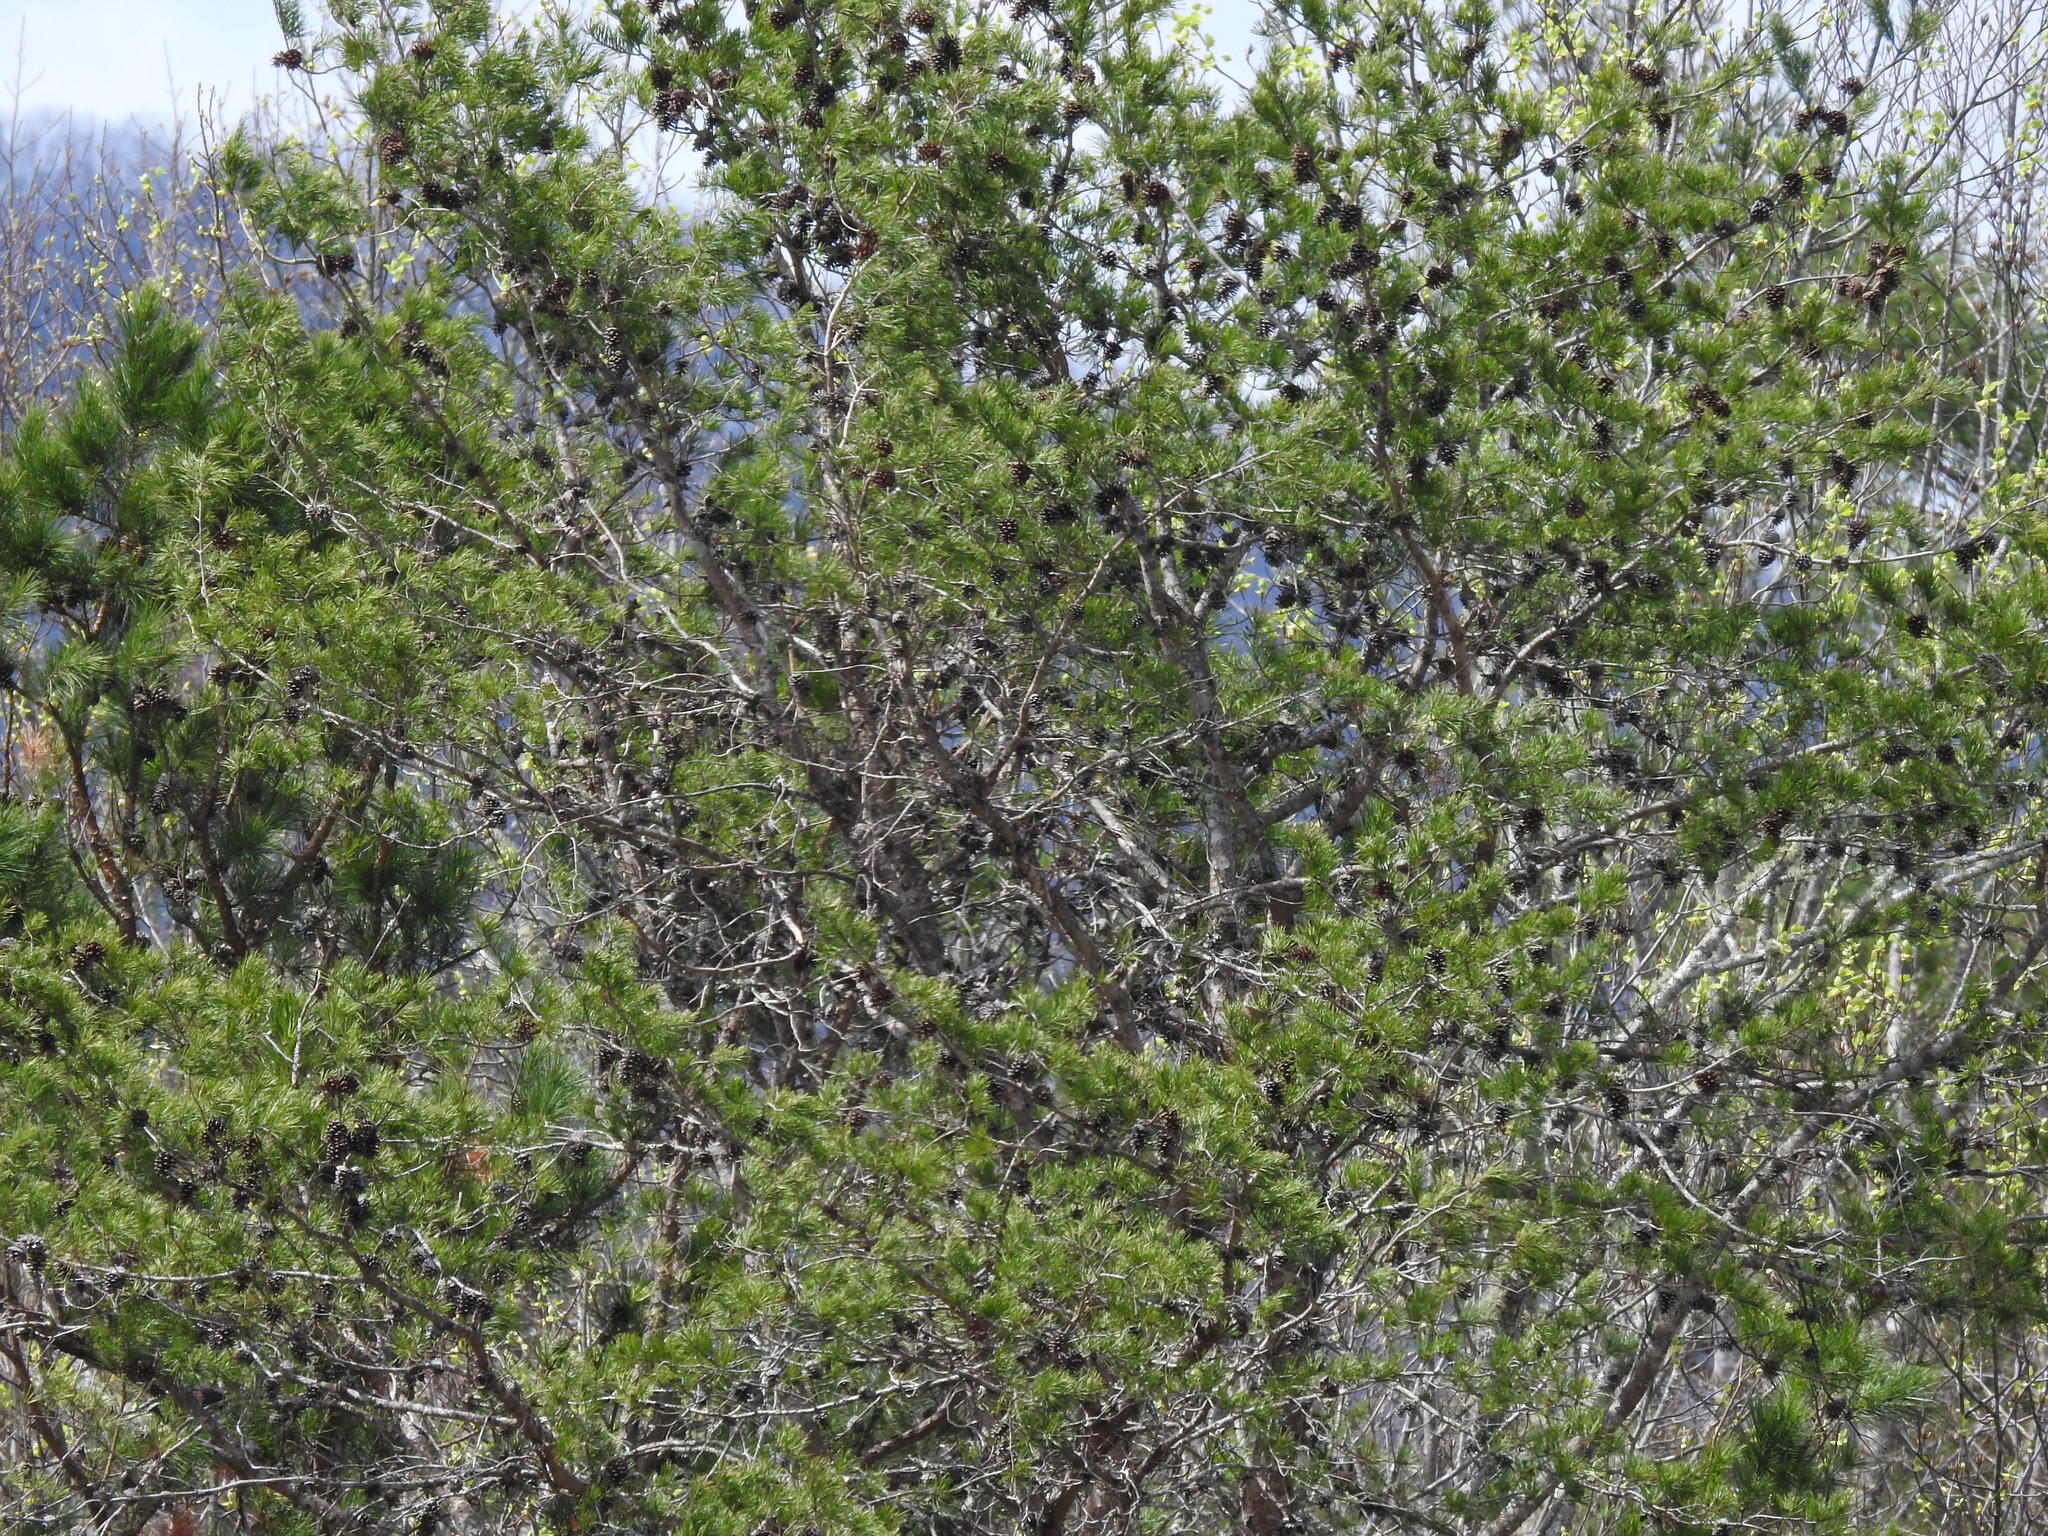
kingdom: Plantae
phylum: Tracheophyta
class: Pinopsida
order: Pinales
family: Pinaceae
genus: Pinus
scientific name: Pinus virginiana
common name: Scrub pine
